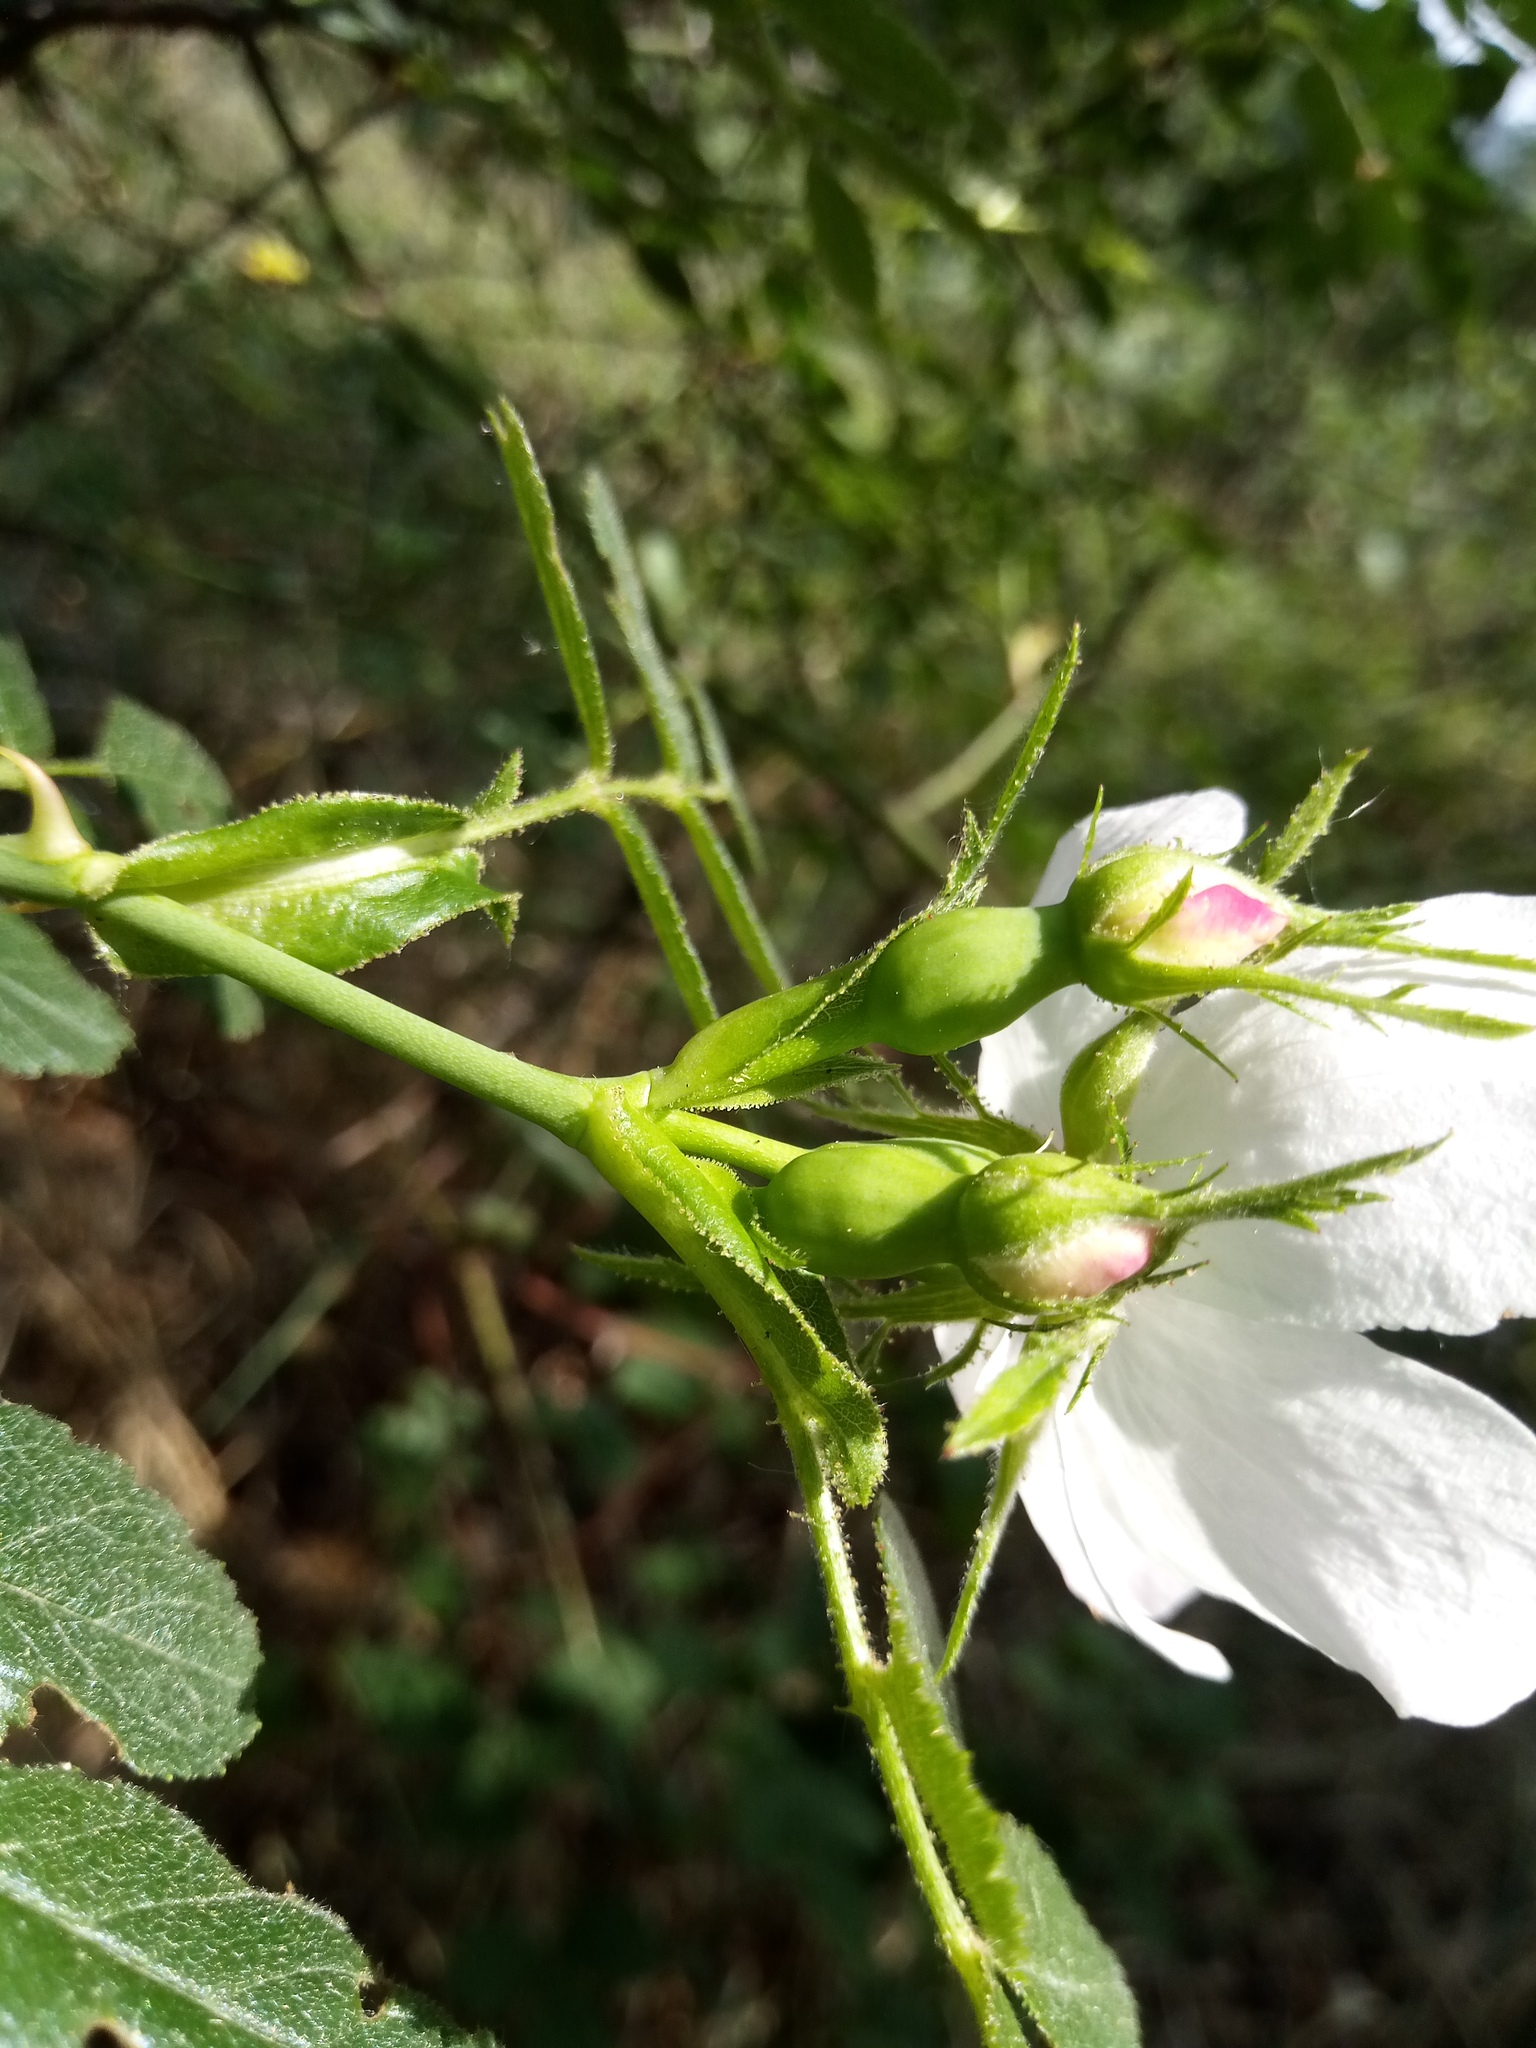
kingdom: Plantae
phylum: Tracheophyta
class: Magnoliopsida
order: Rosales
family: Rosaceae
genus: Rosa
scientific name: Rosa inodora
